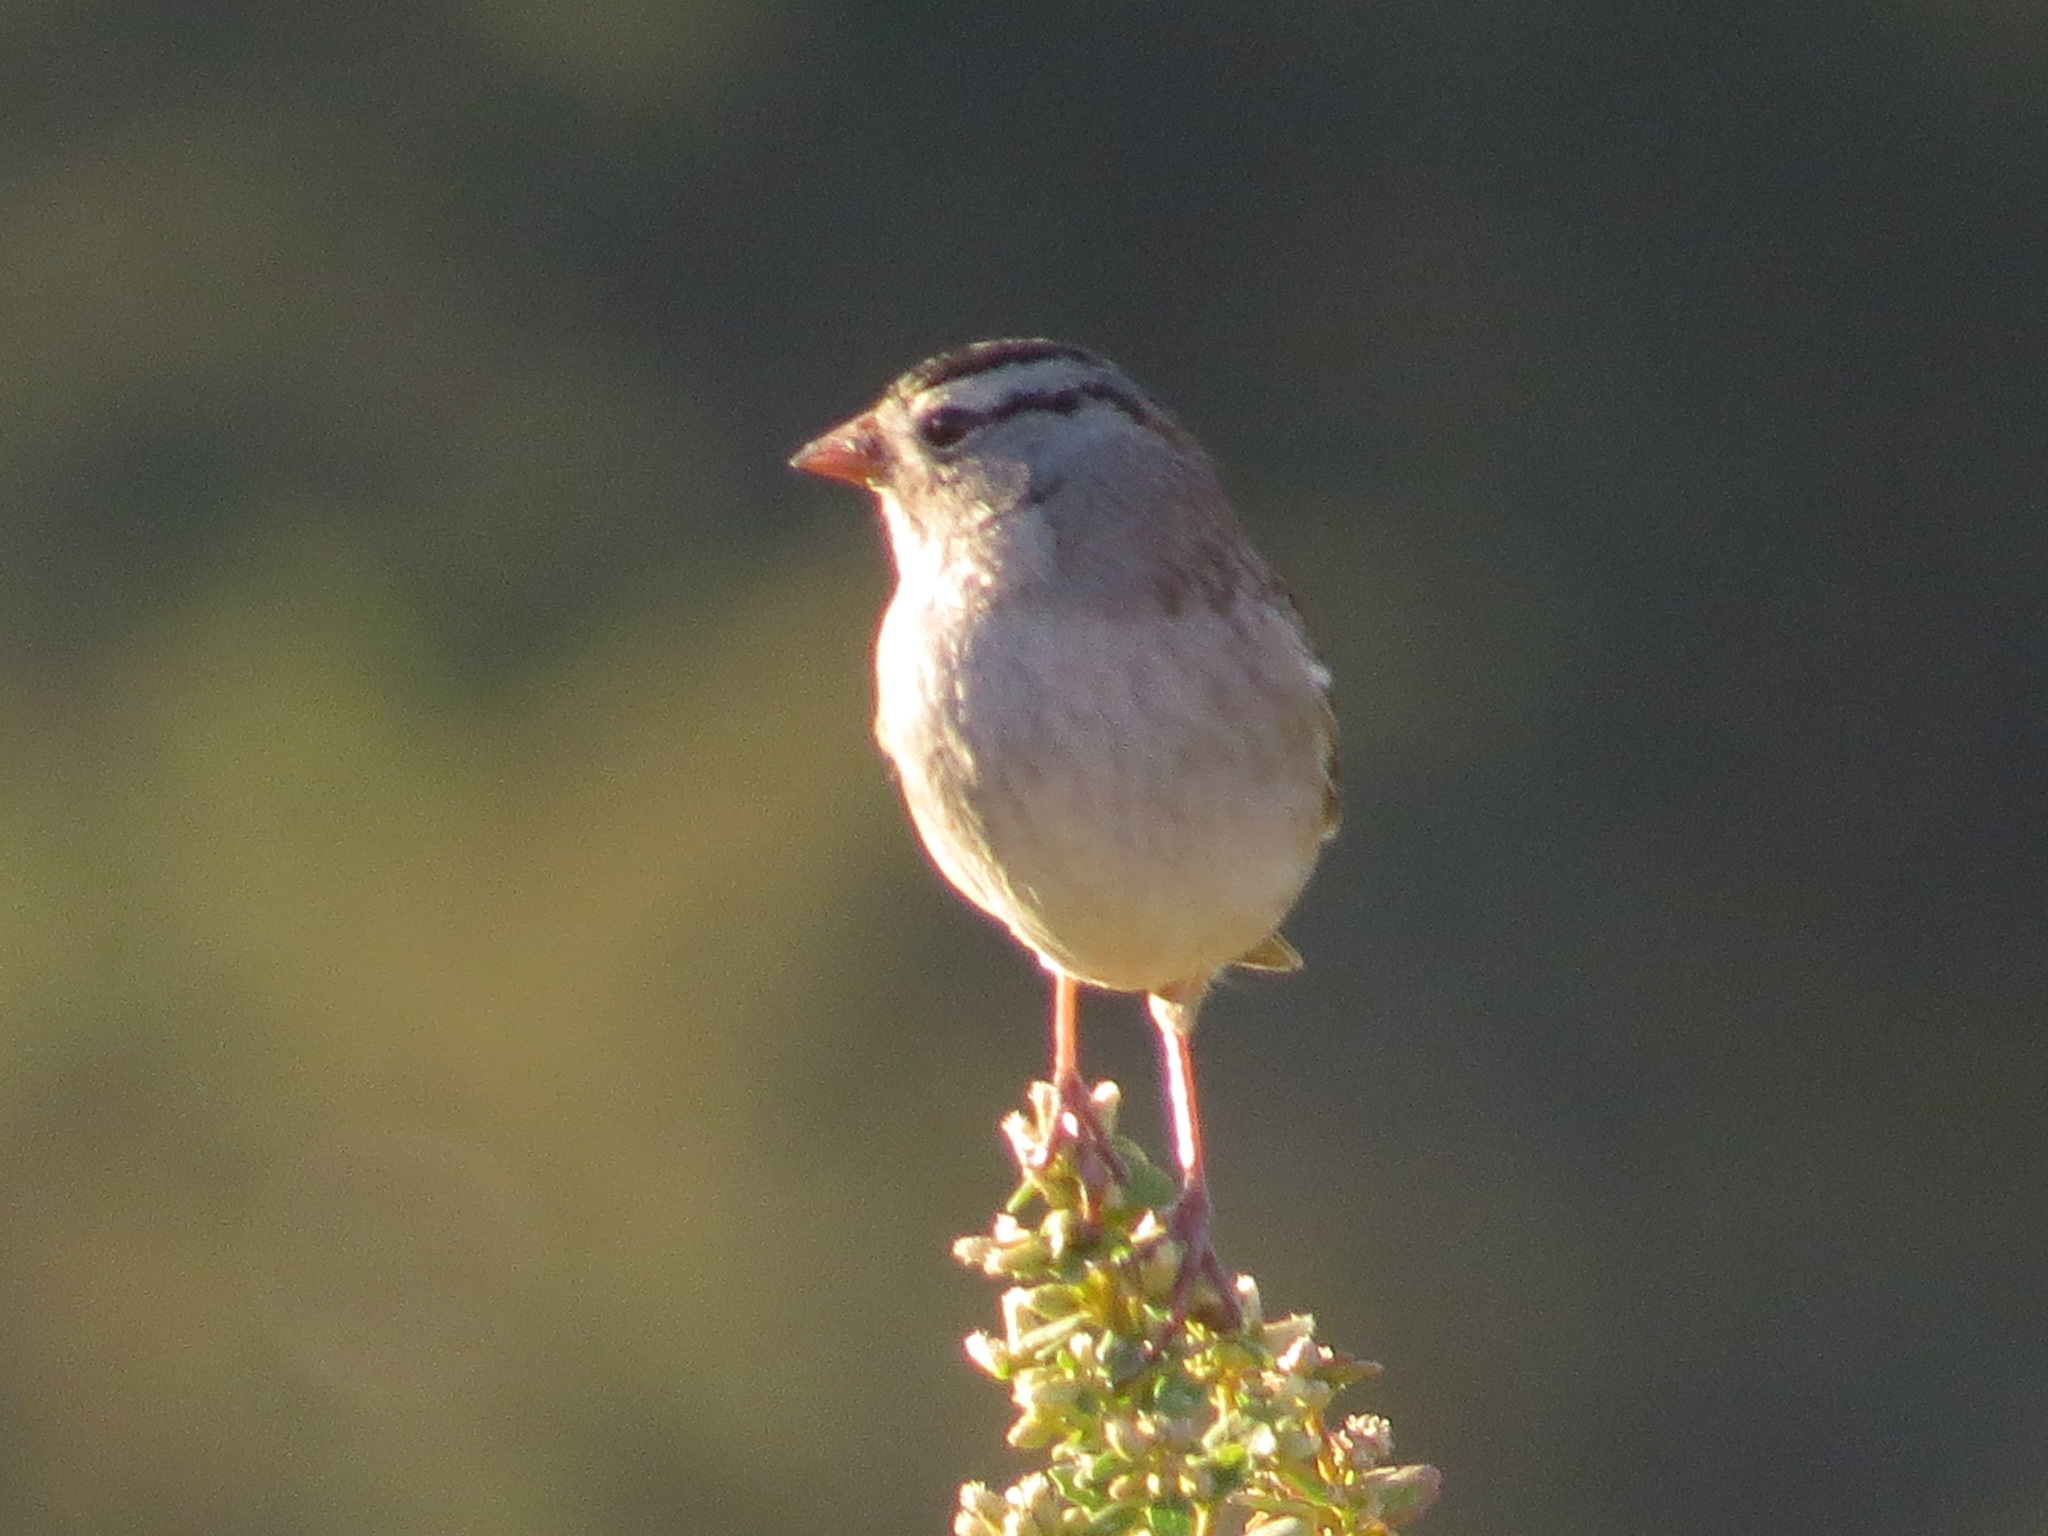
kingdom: Animalia
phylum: Chordata
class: Aves
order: Passeriformes
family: Passerellidae
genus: Zonotrichia
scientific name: Zonotrichia leucophrys
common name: White-crowned sparrow
